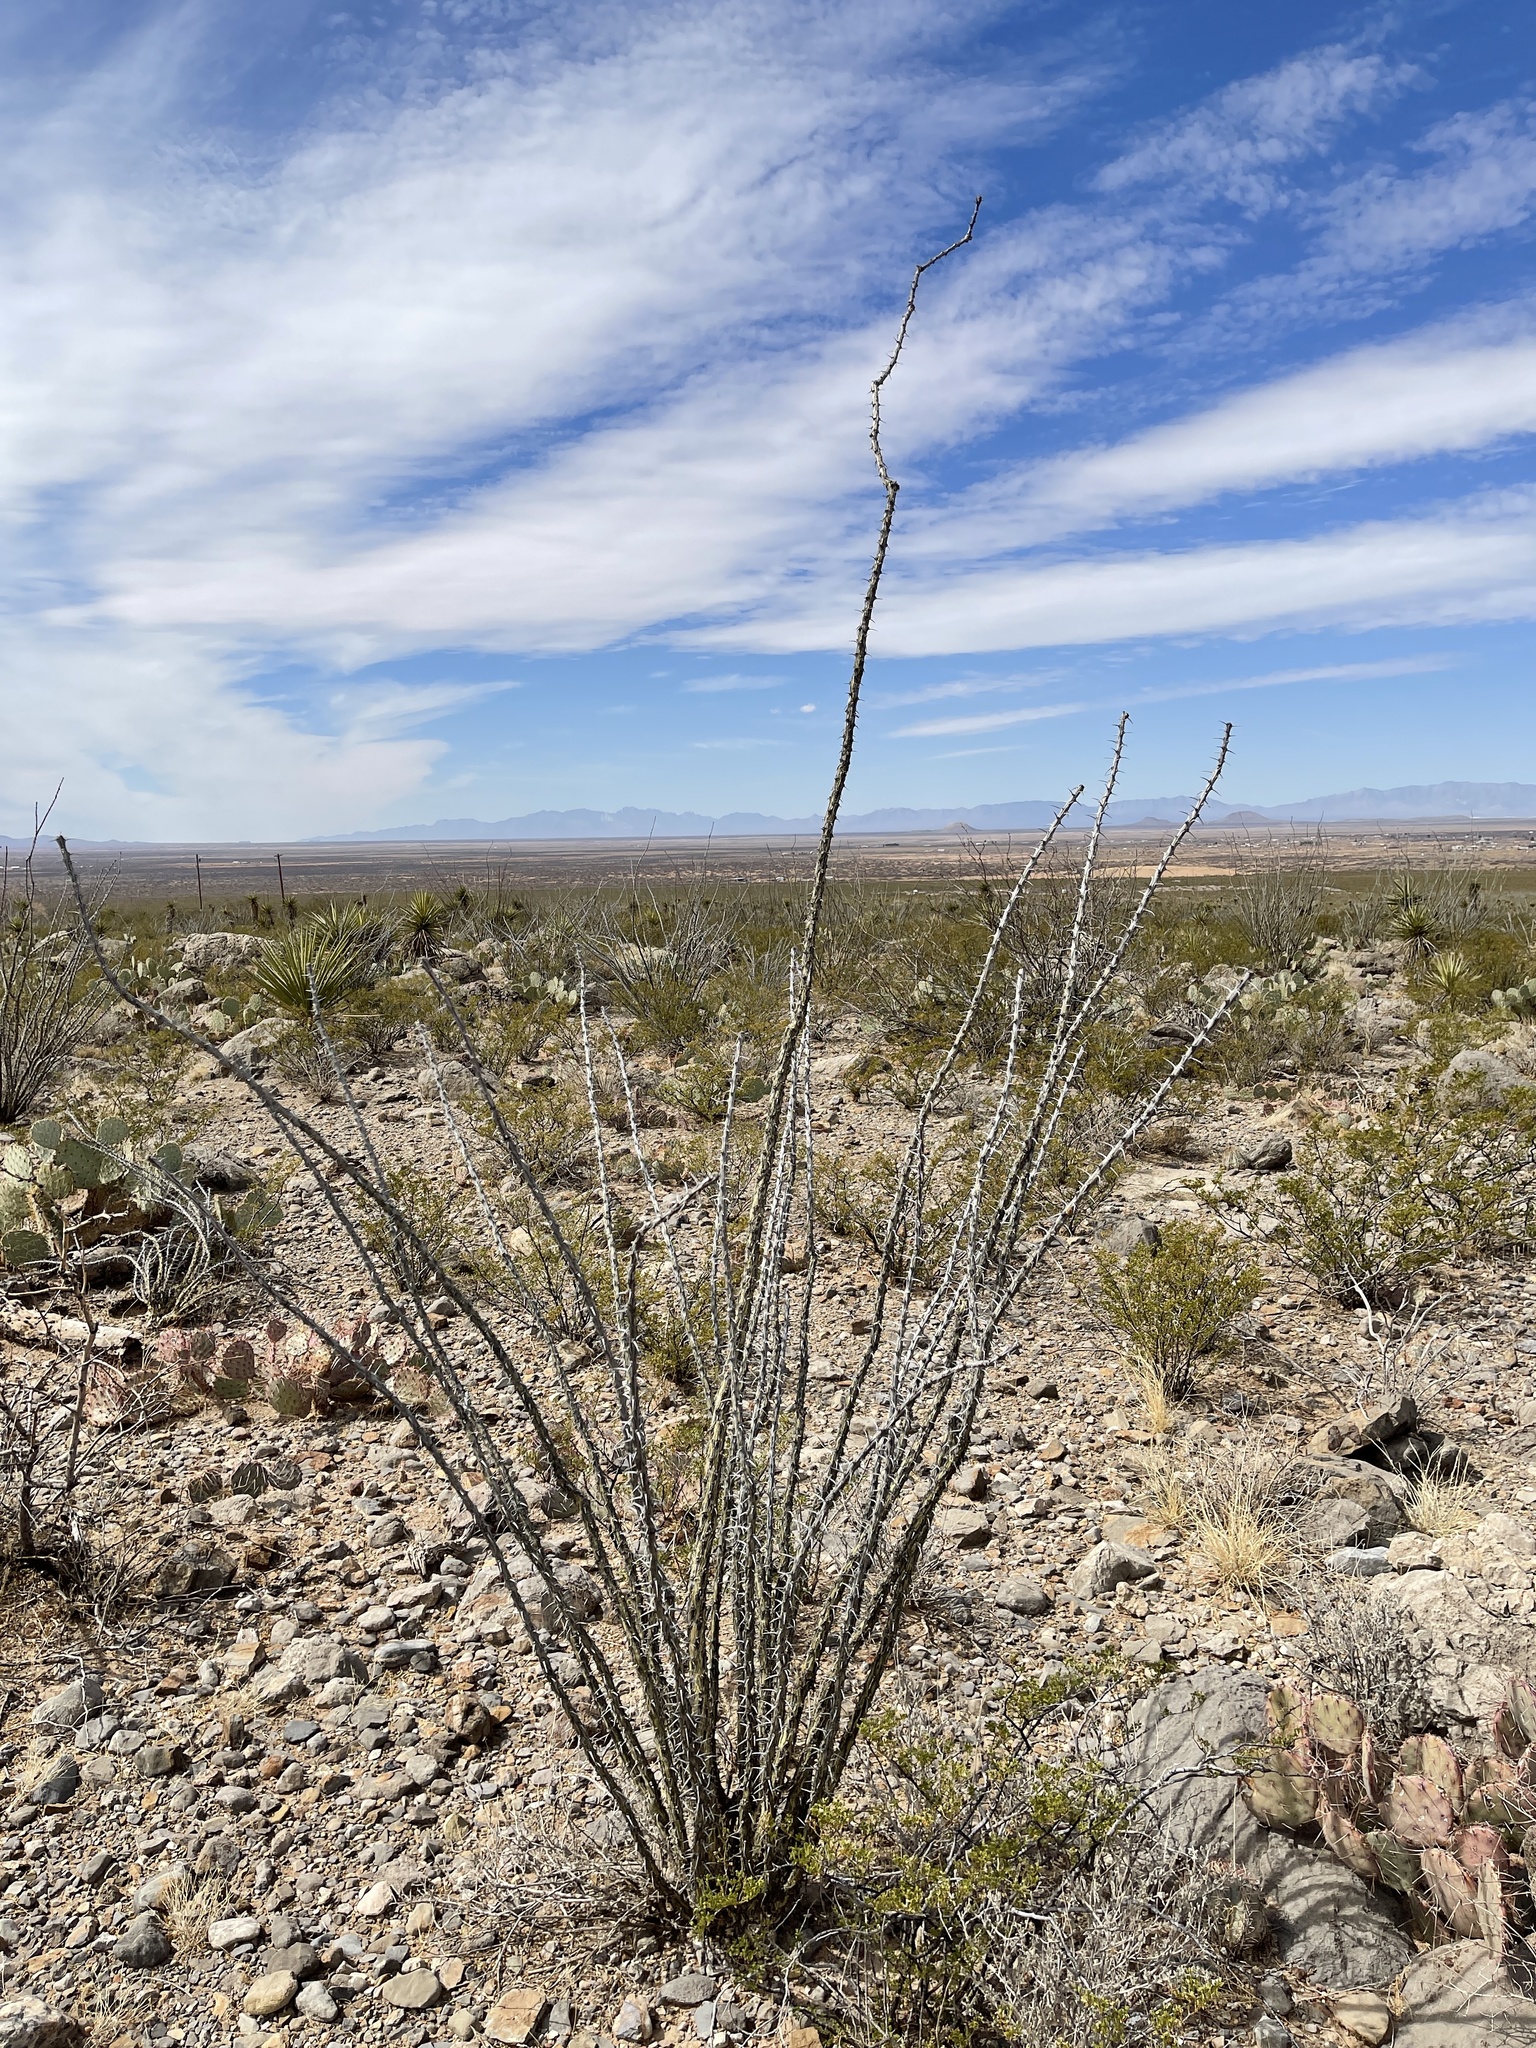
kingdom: Plantae
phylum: Tracheophyta
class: Magnoliopsida
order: Ericales
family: Fouquieriaceae
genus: Fouquieria
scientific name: Fouquieria splendens
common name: Vine-cactus
